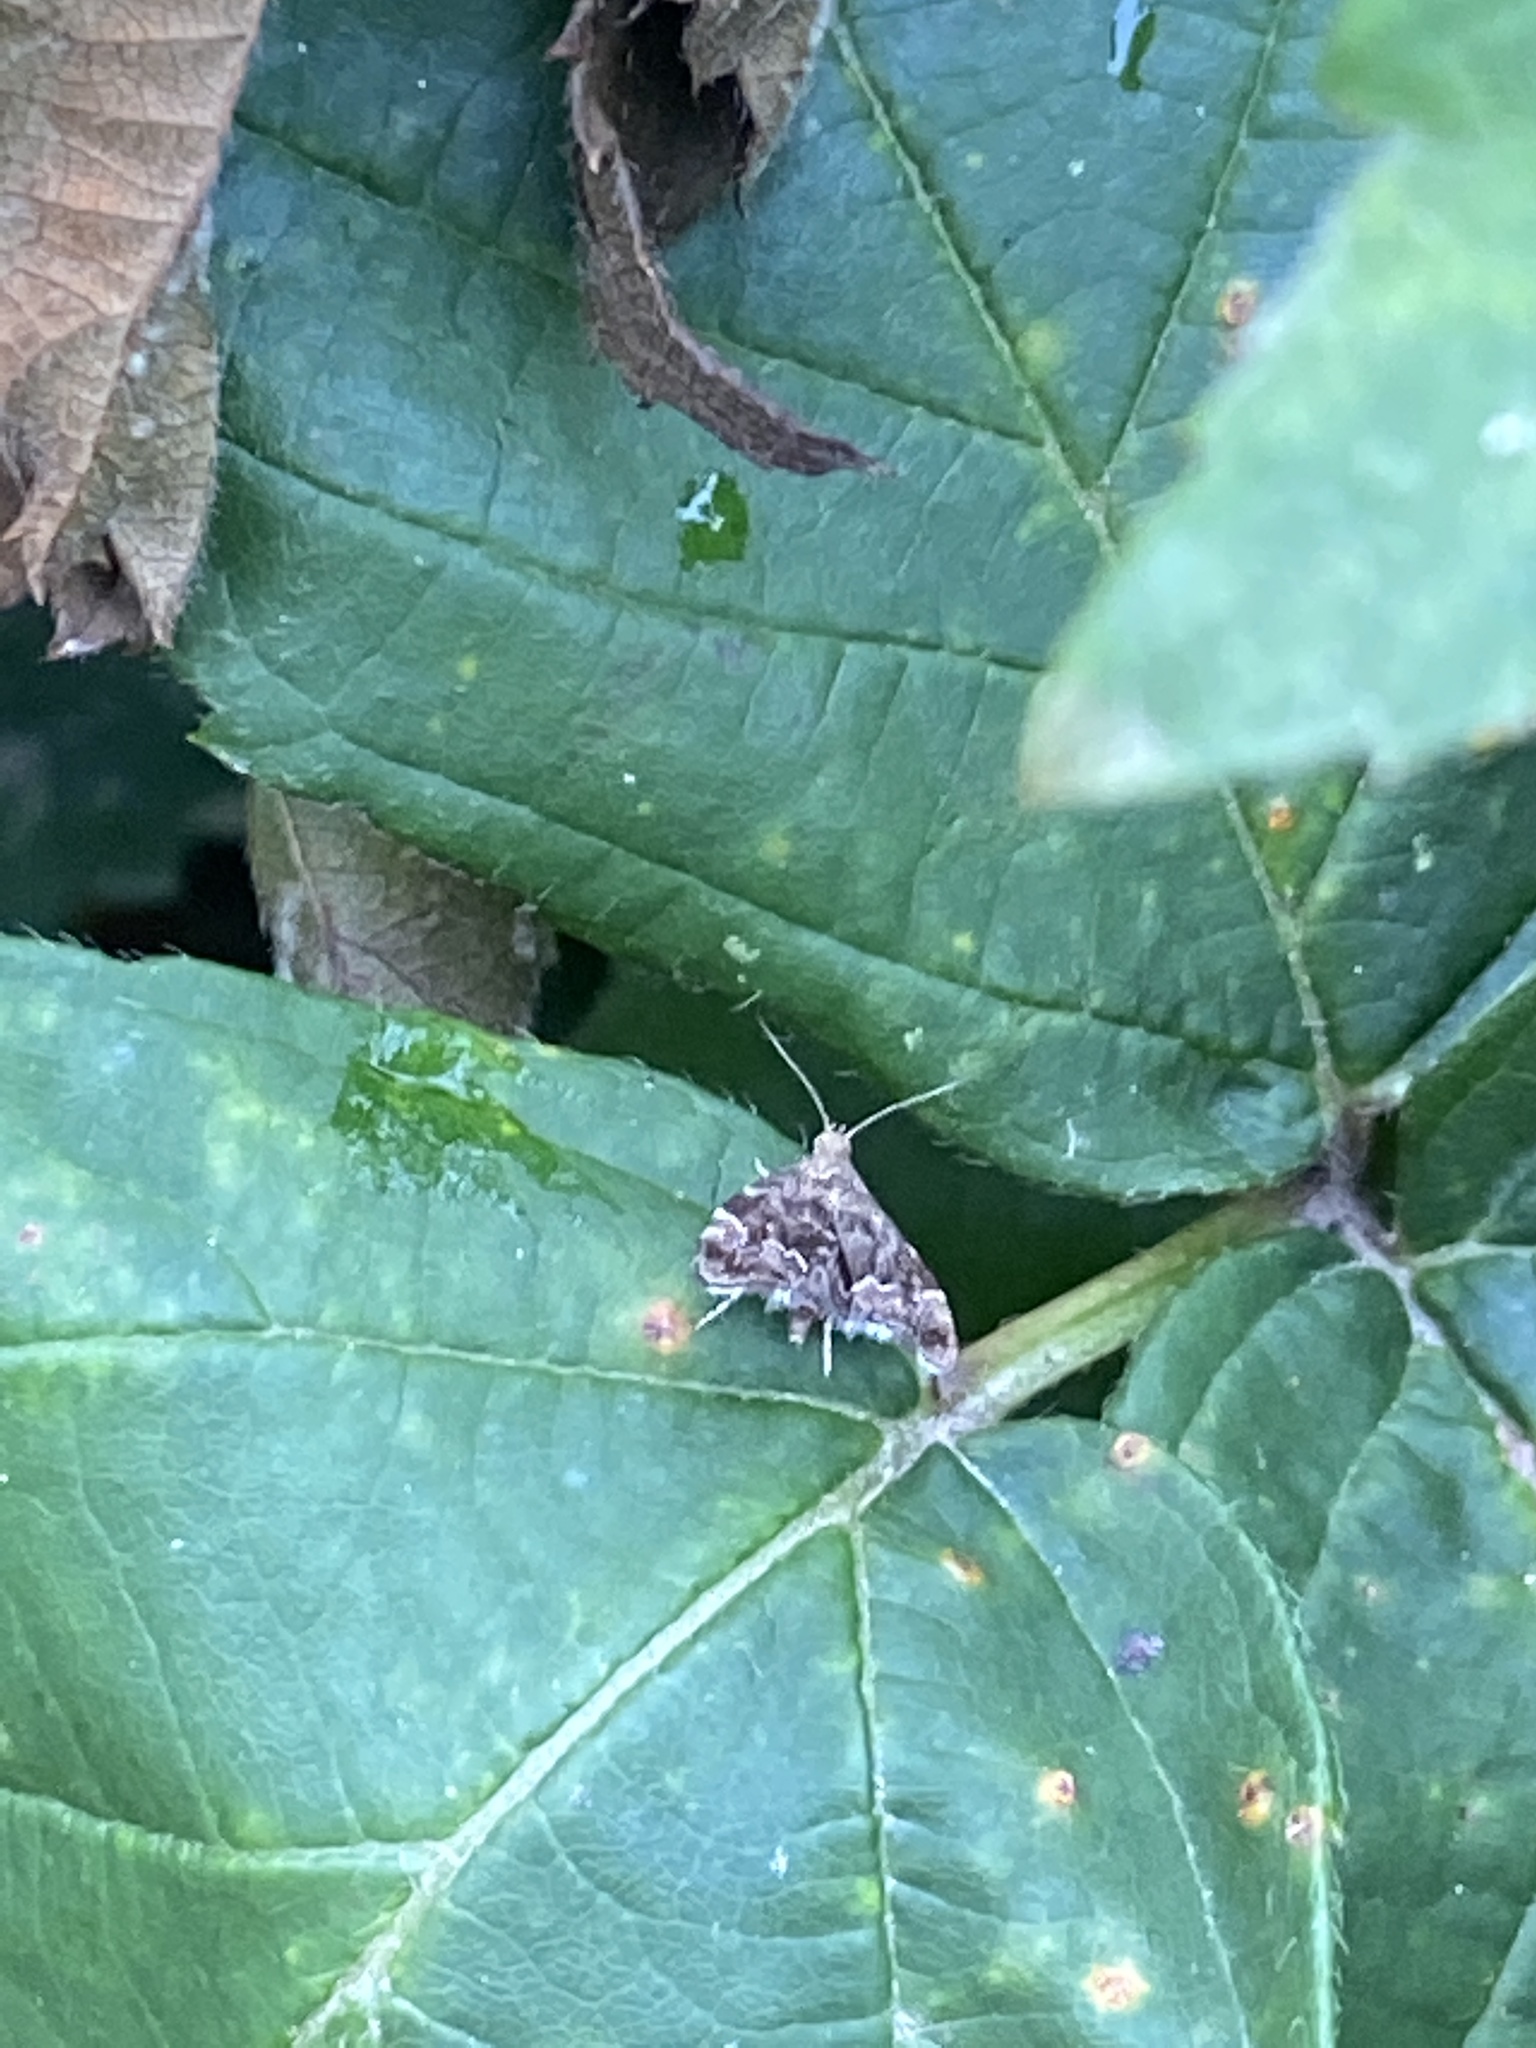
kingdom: Animalia
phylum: Arthropoda
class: Insecta
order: Lepidoptera
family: Choreutidae
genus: Anthophila
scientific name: Anthophila fabriciana
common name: Nettle-tap
